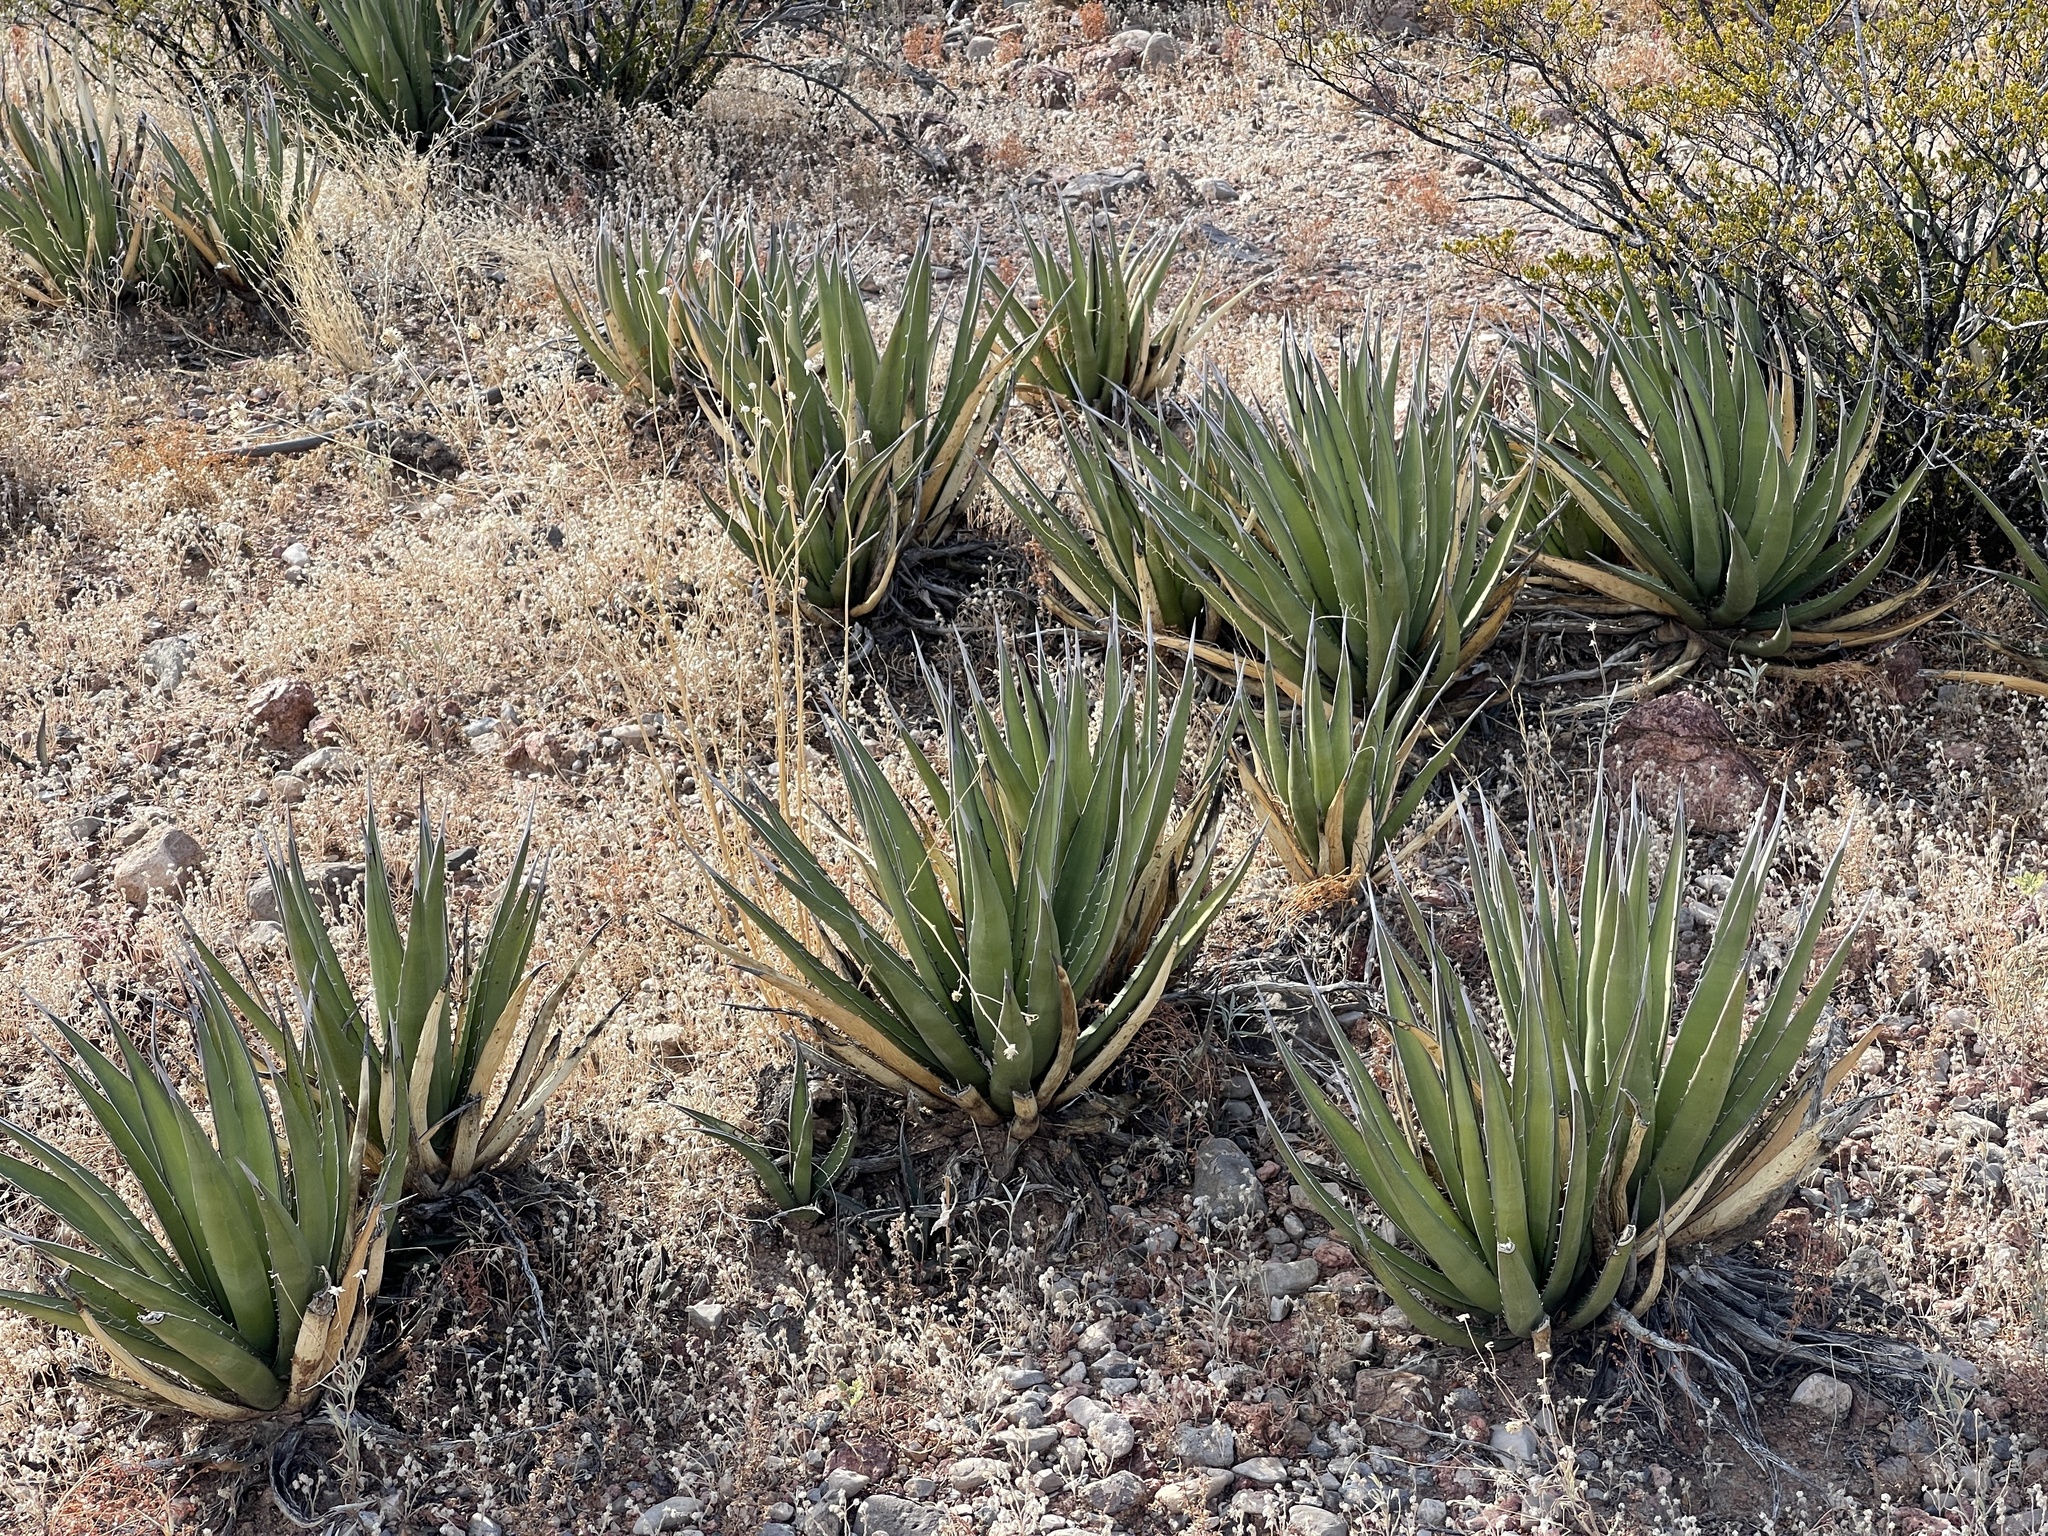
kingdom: Plantae
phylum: Tracheophyta
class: Liliopsida
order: Asparagales
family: Asparagaceae
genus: Agave
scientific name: Agave lechuguilla
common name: Lecheguilla agave
